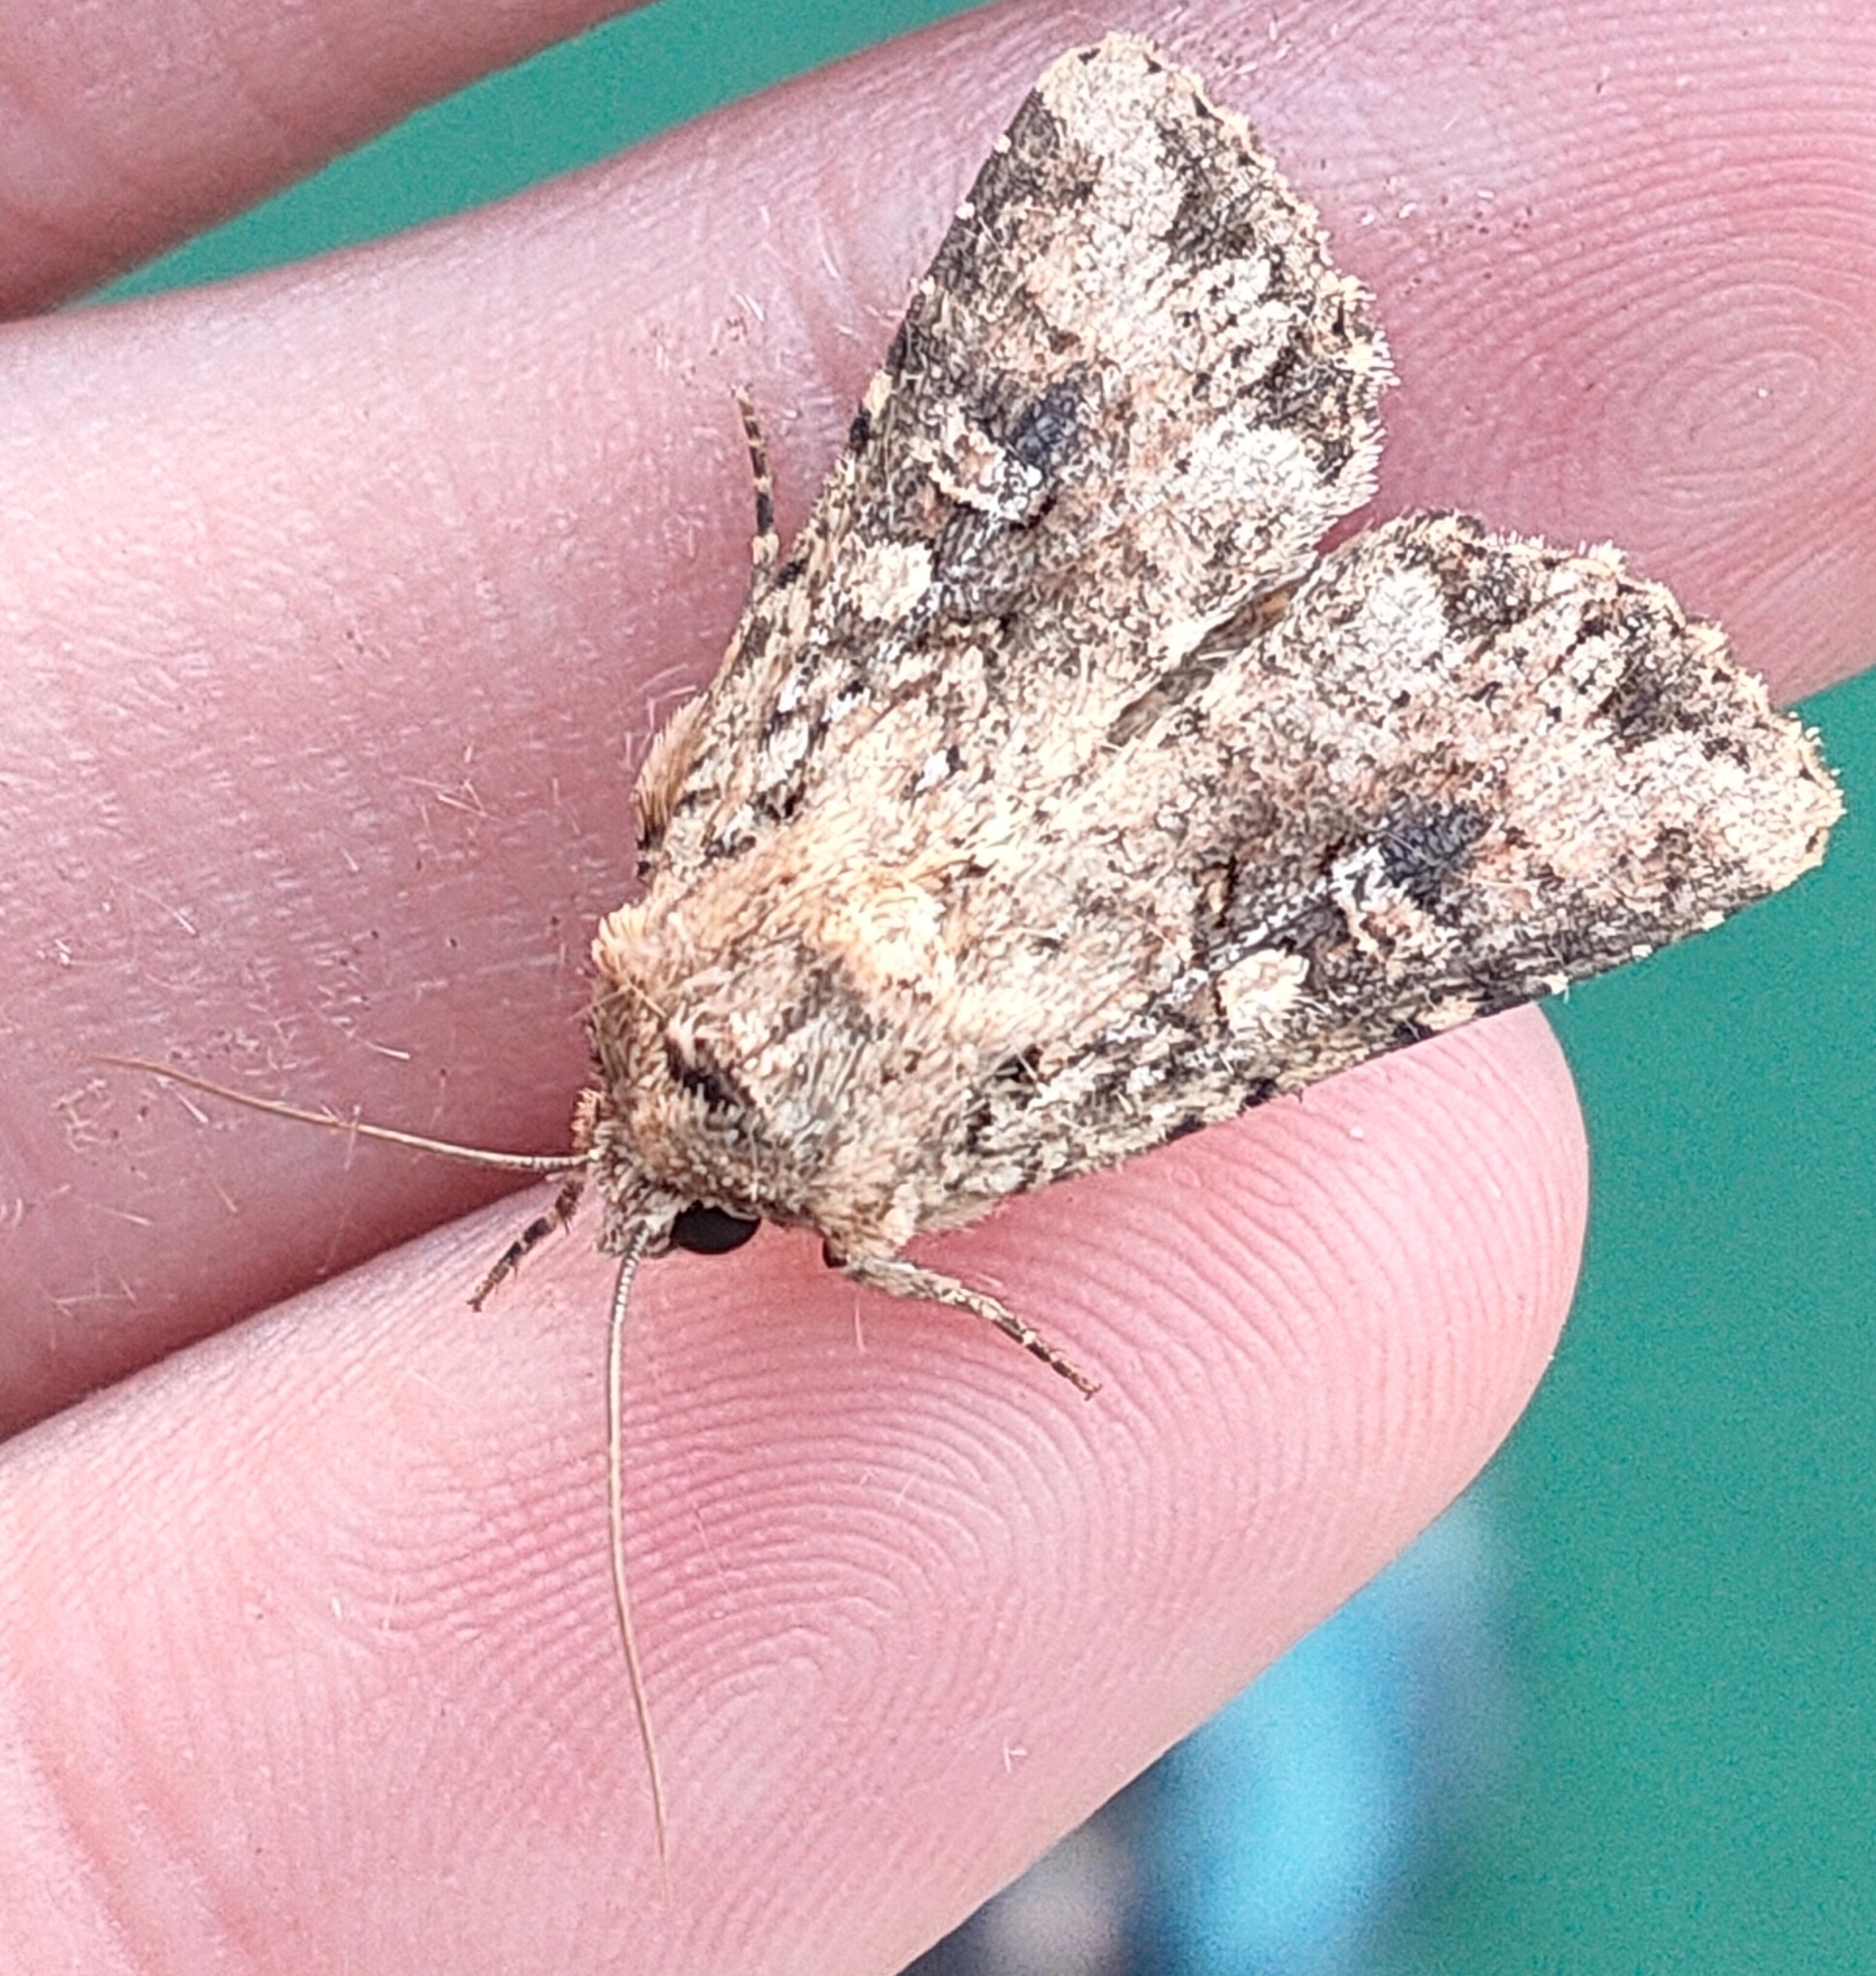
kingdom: Animalia
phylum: Arthropoda
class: Insecta
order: Lepidoptera
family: Noctuidae
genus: Mythimna
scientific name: Mythimna stolida
